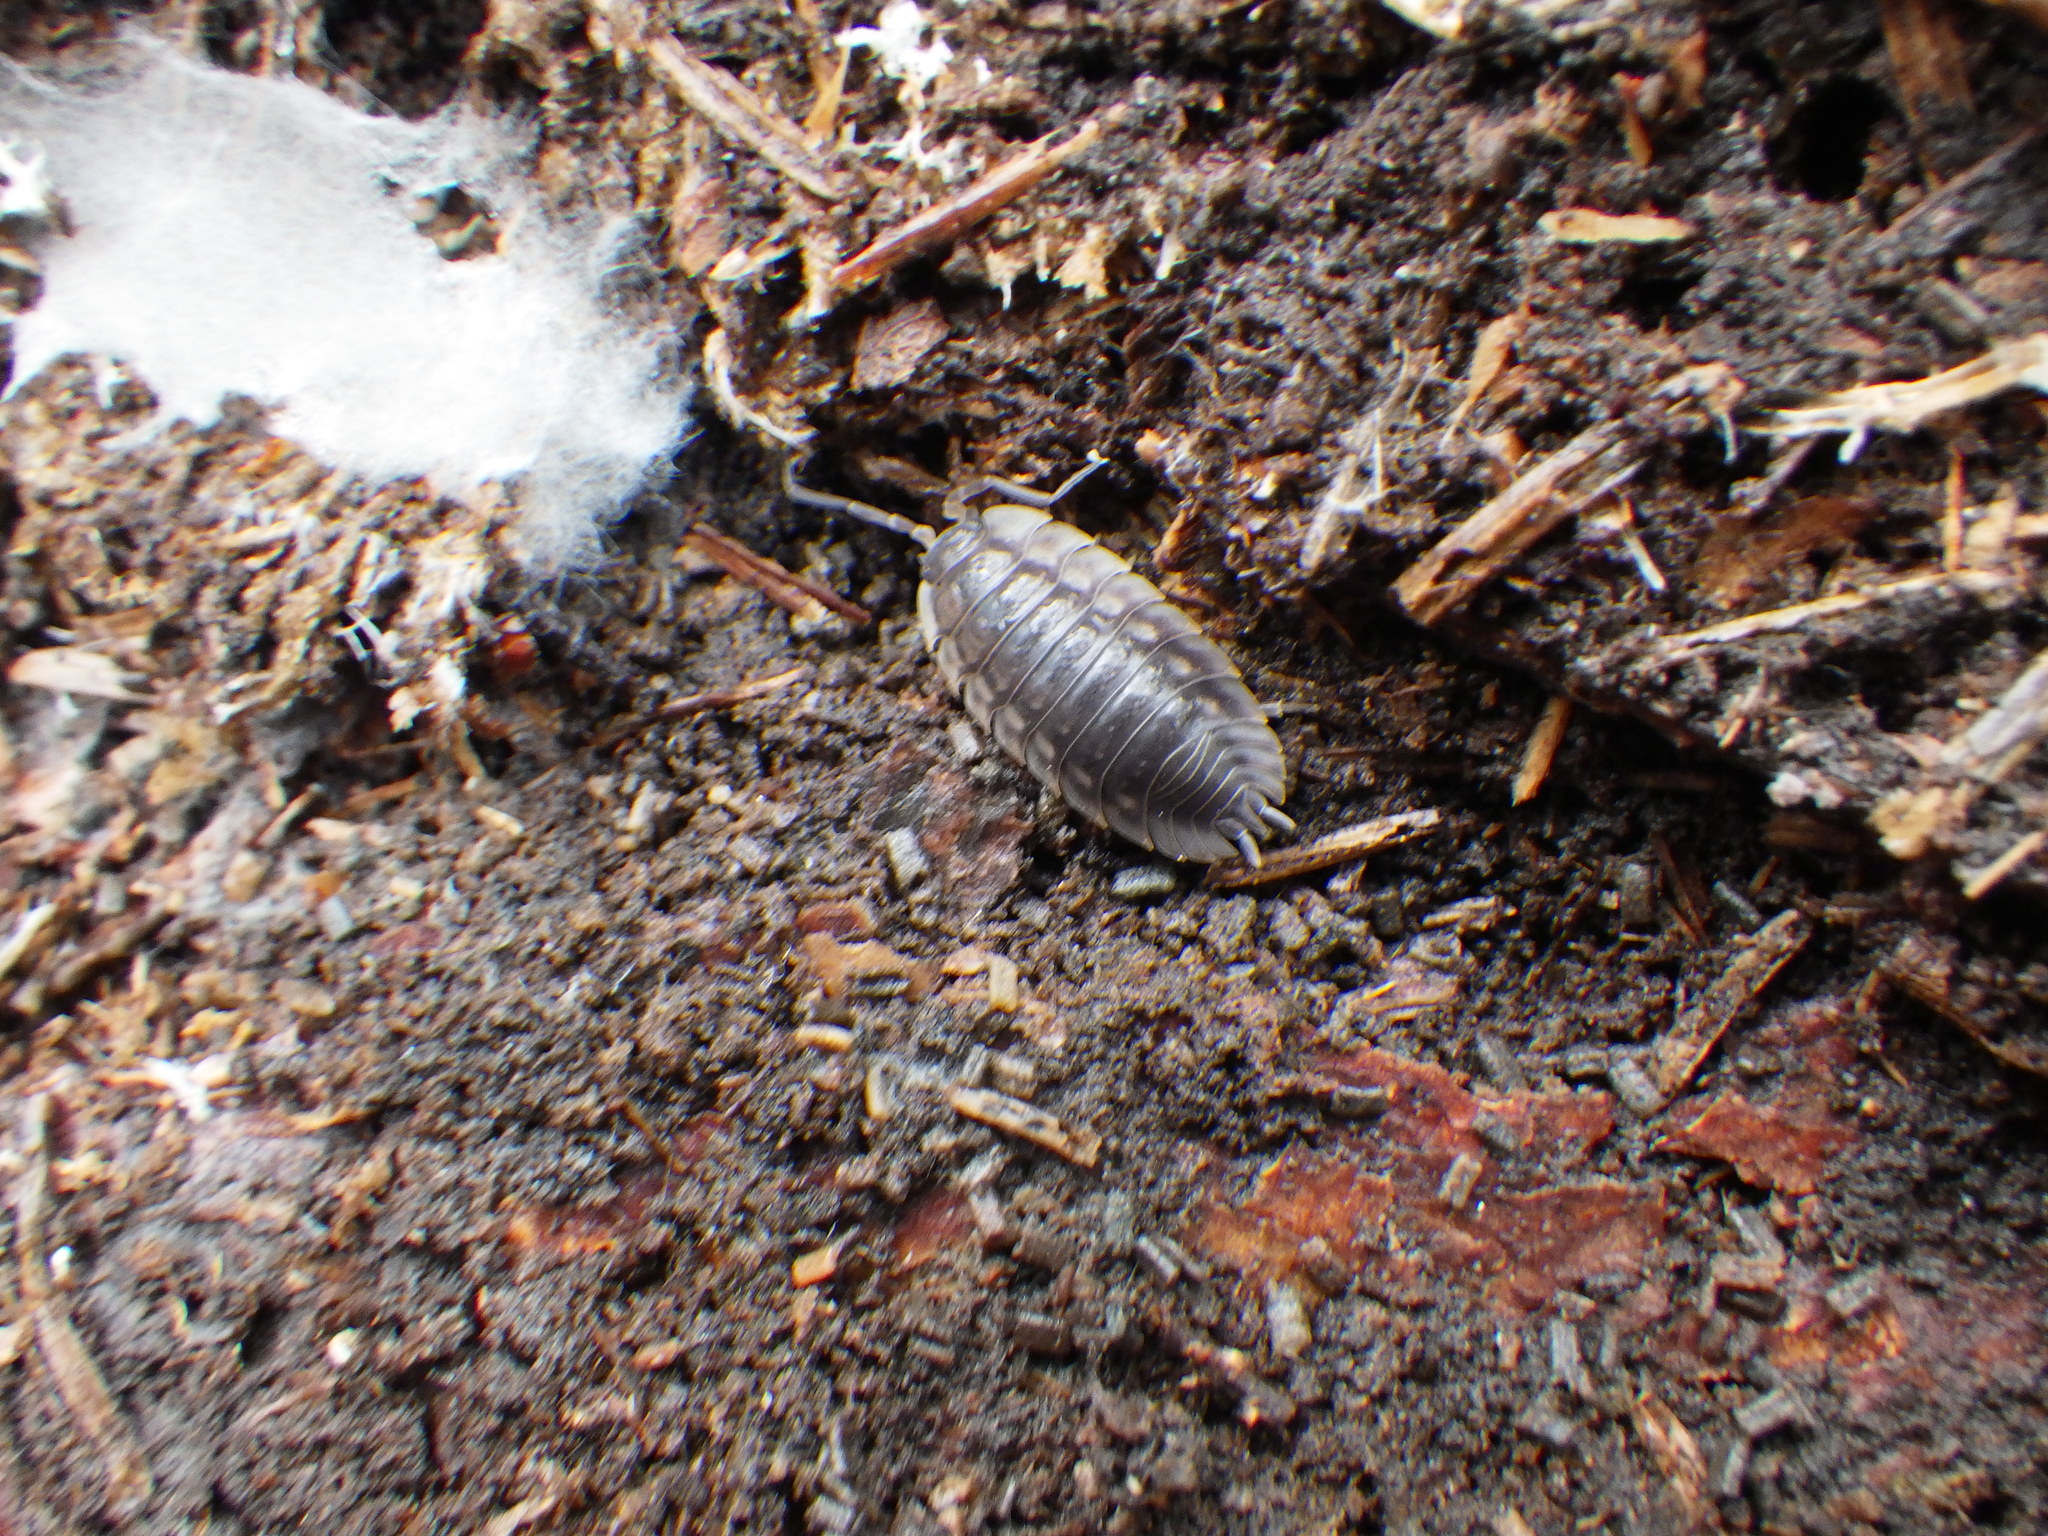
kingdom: Animalia
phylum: Arthropoda
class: Malacostraca
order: Isopoda
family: Oniscidae
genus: Oniscus
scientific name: Oniscus asellus
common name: Common shiny woodlouse
